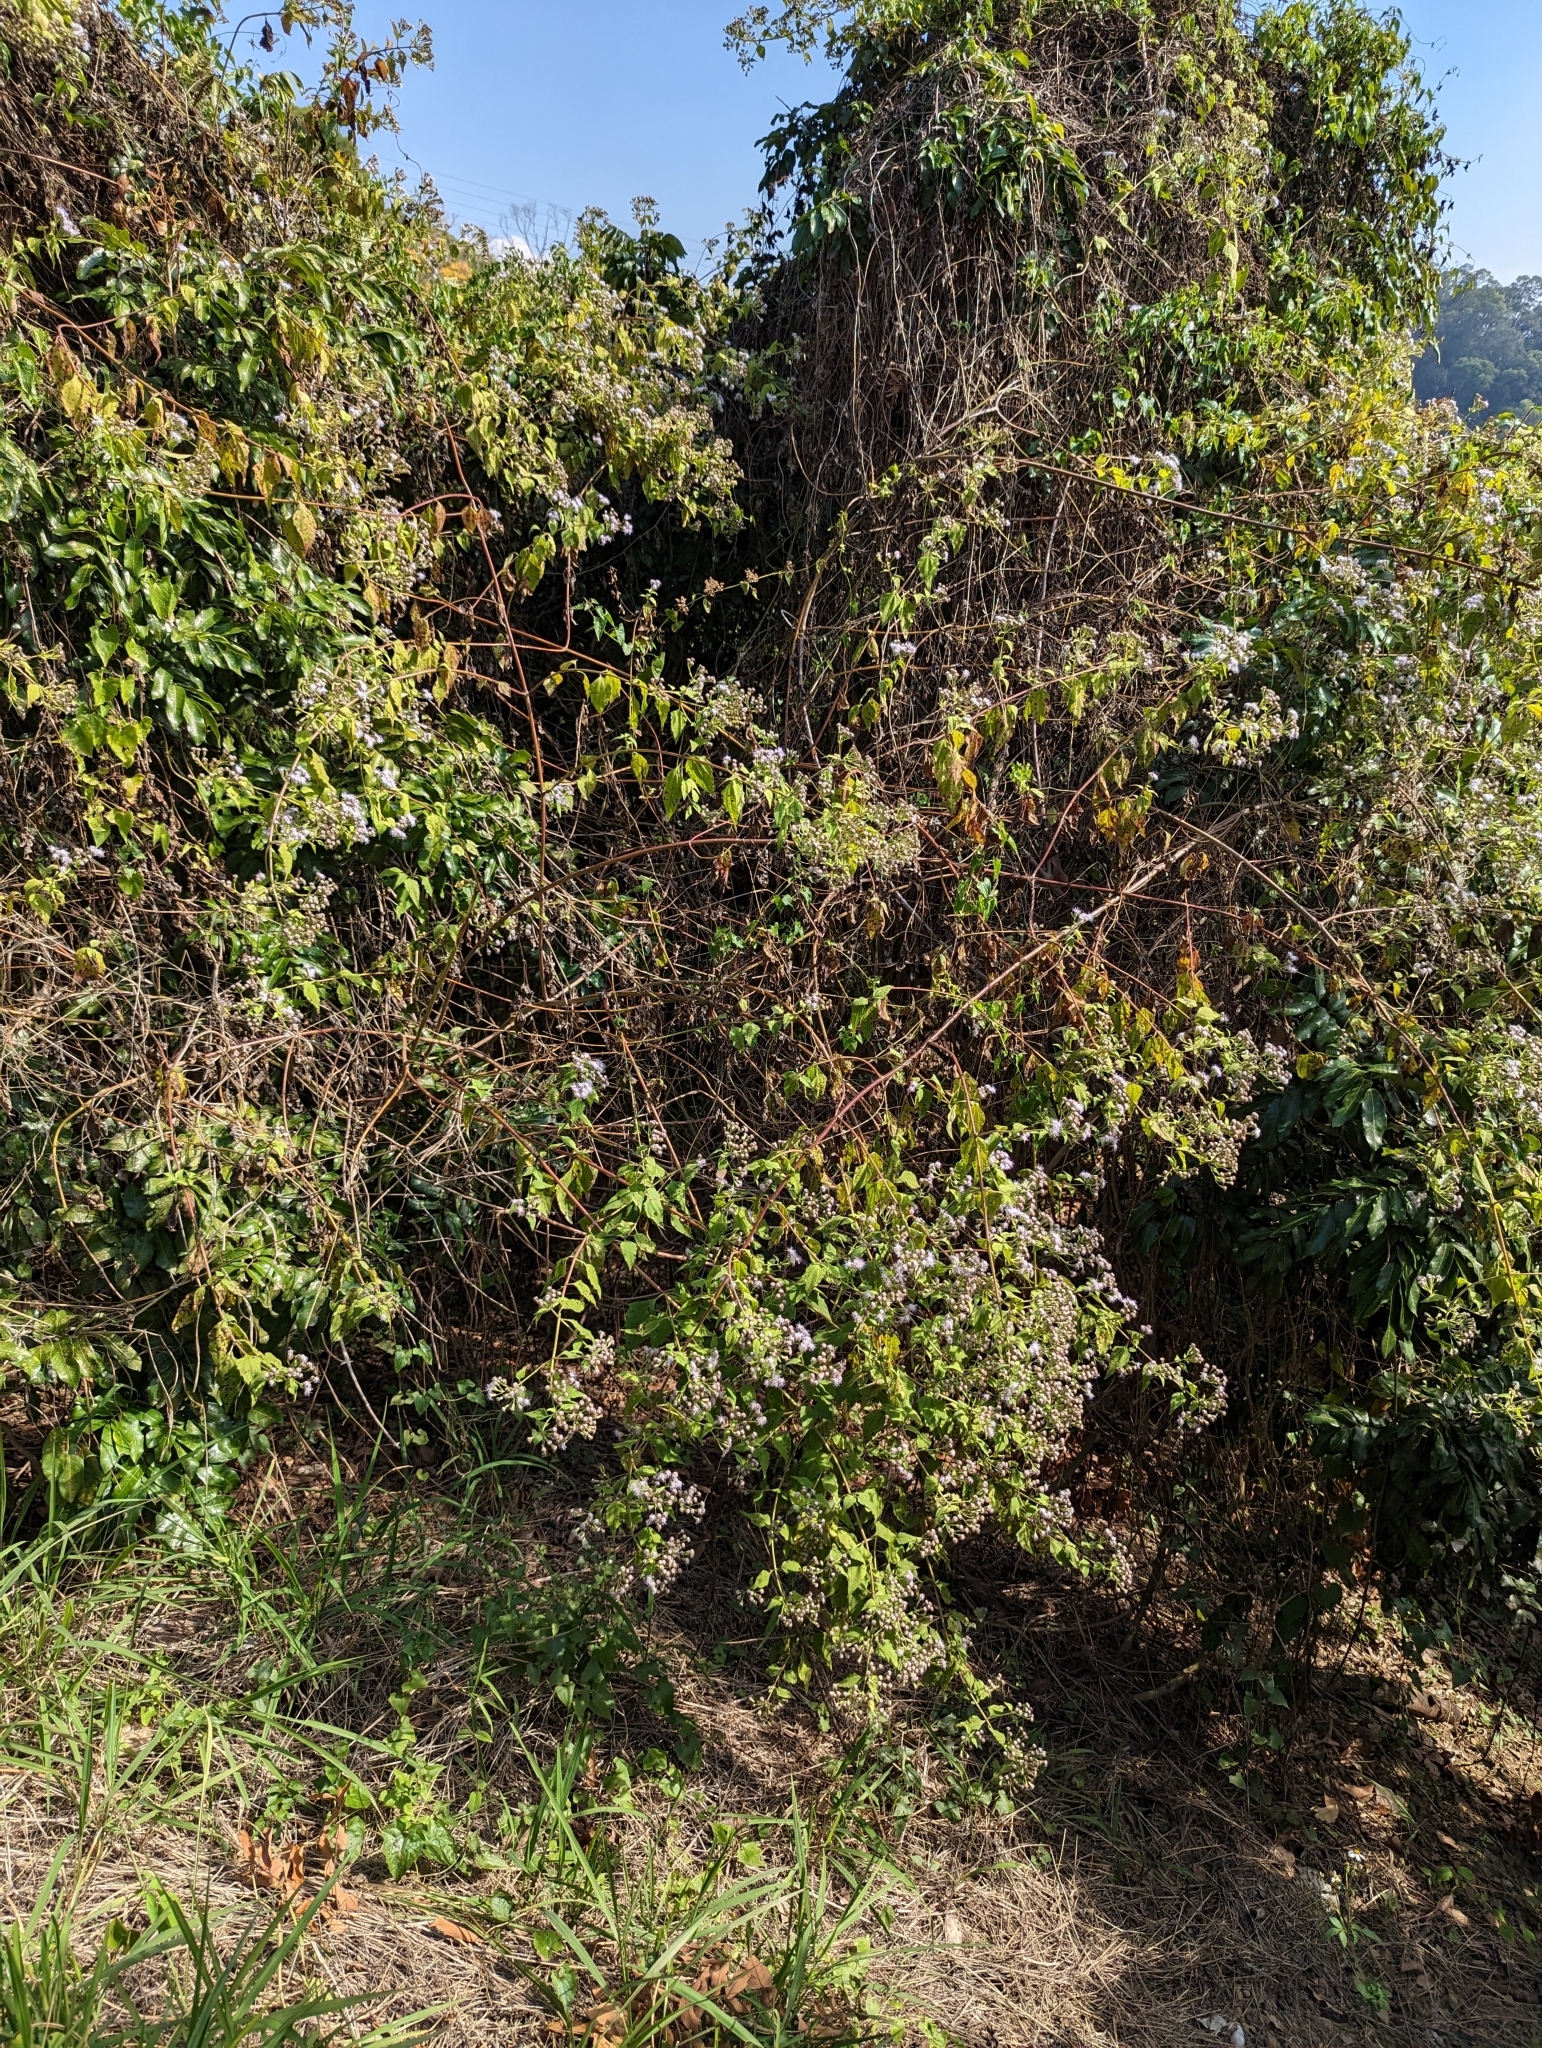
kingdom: Plantae
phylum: Tracheophyta
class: Magnoliopsida
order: Asterales
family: Asteraceae
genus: Chromolaena
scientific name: Chromolaena odorata
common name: Siamweed
